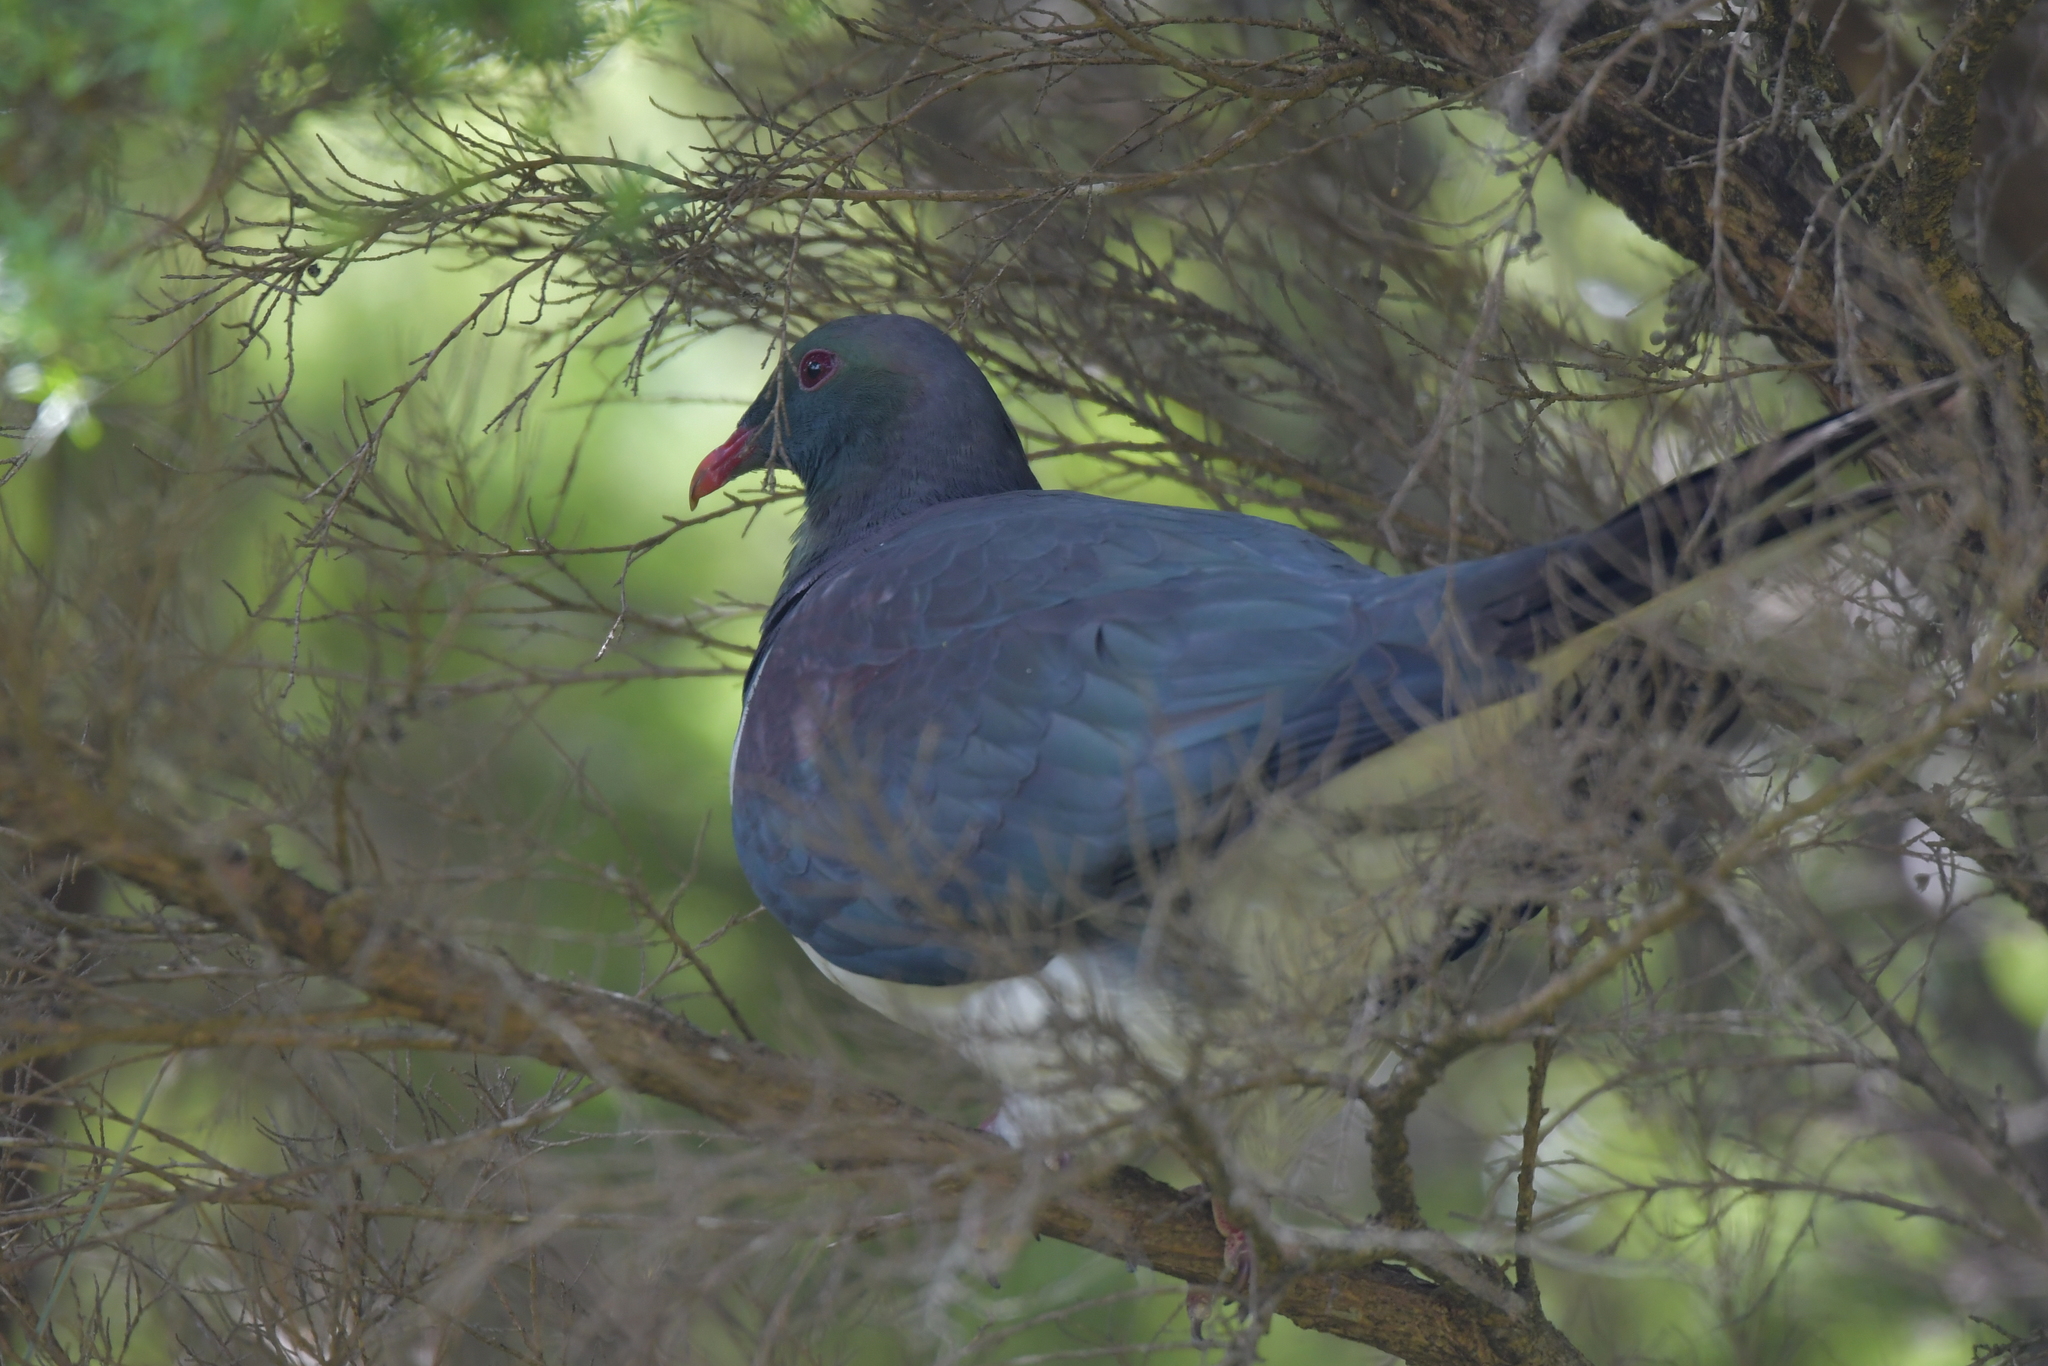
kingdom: Animalia
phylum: Chordata
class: Aves
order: Columbiformes
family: Columbidae
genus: Hemiphaga
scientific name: Hemiphaga novaeseelandiae
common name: New zealand pigeon
